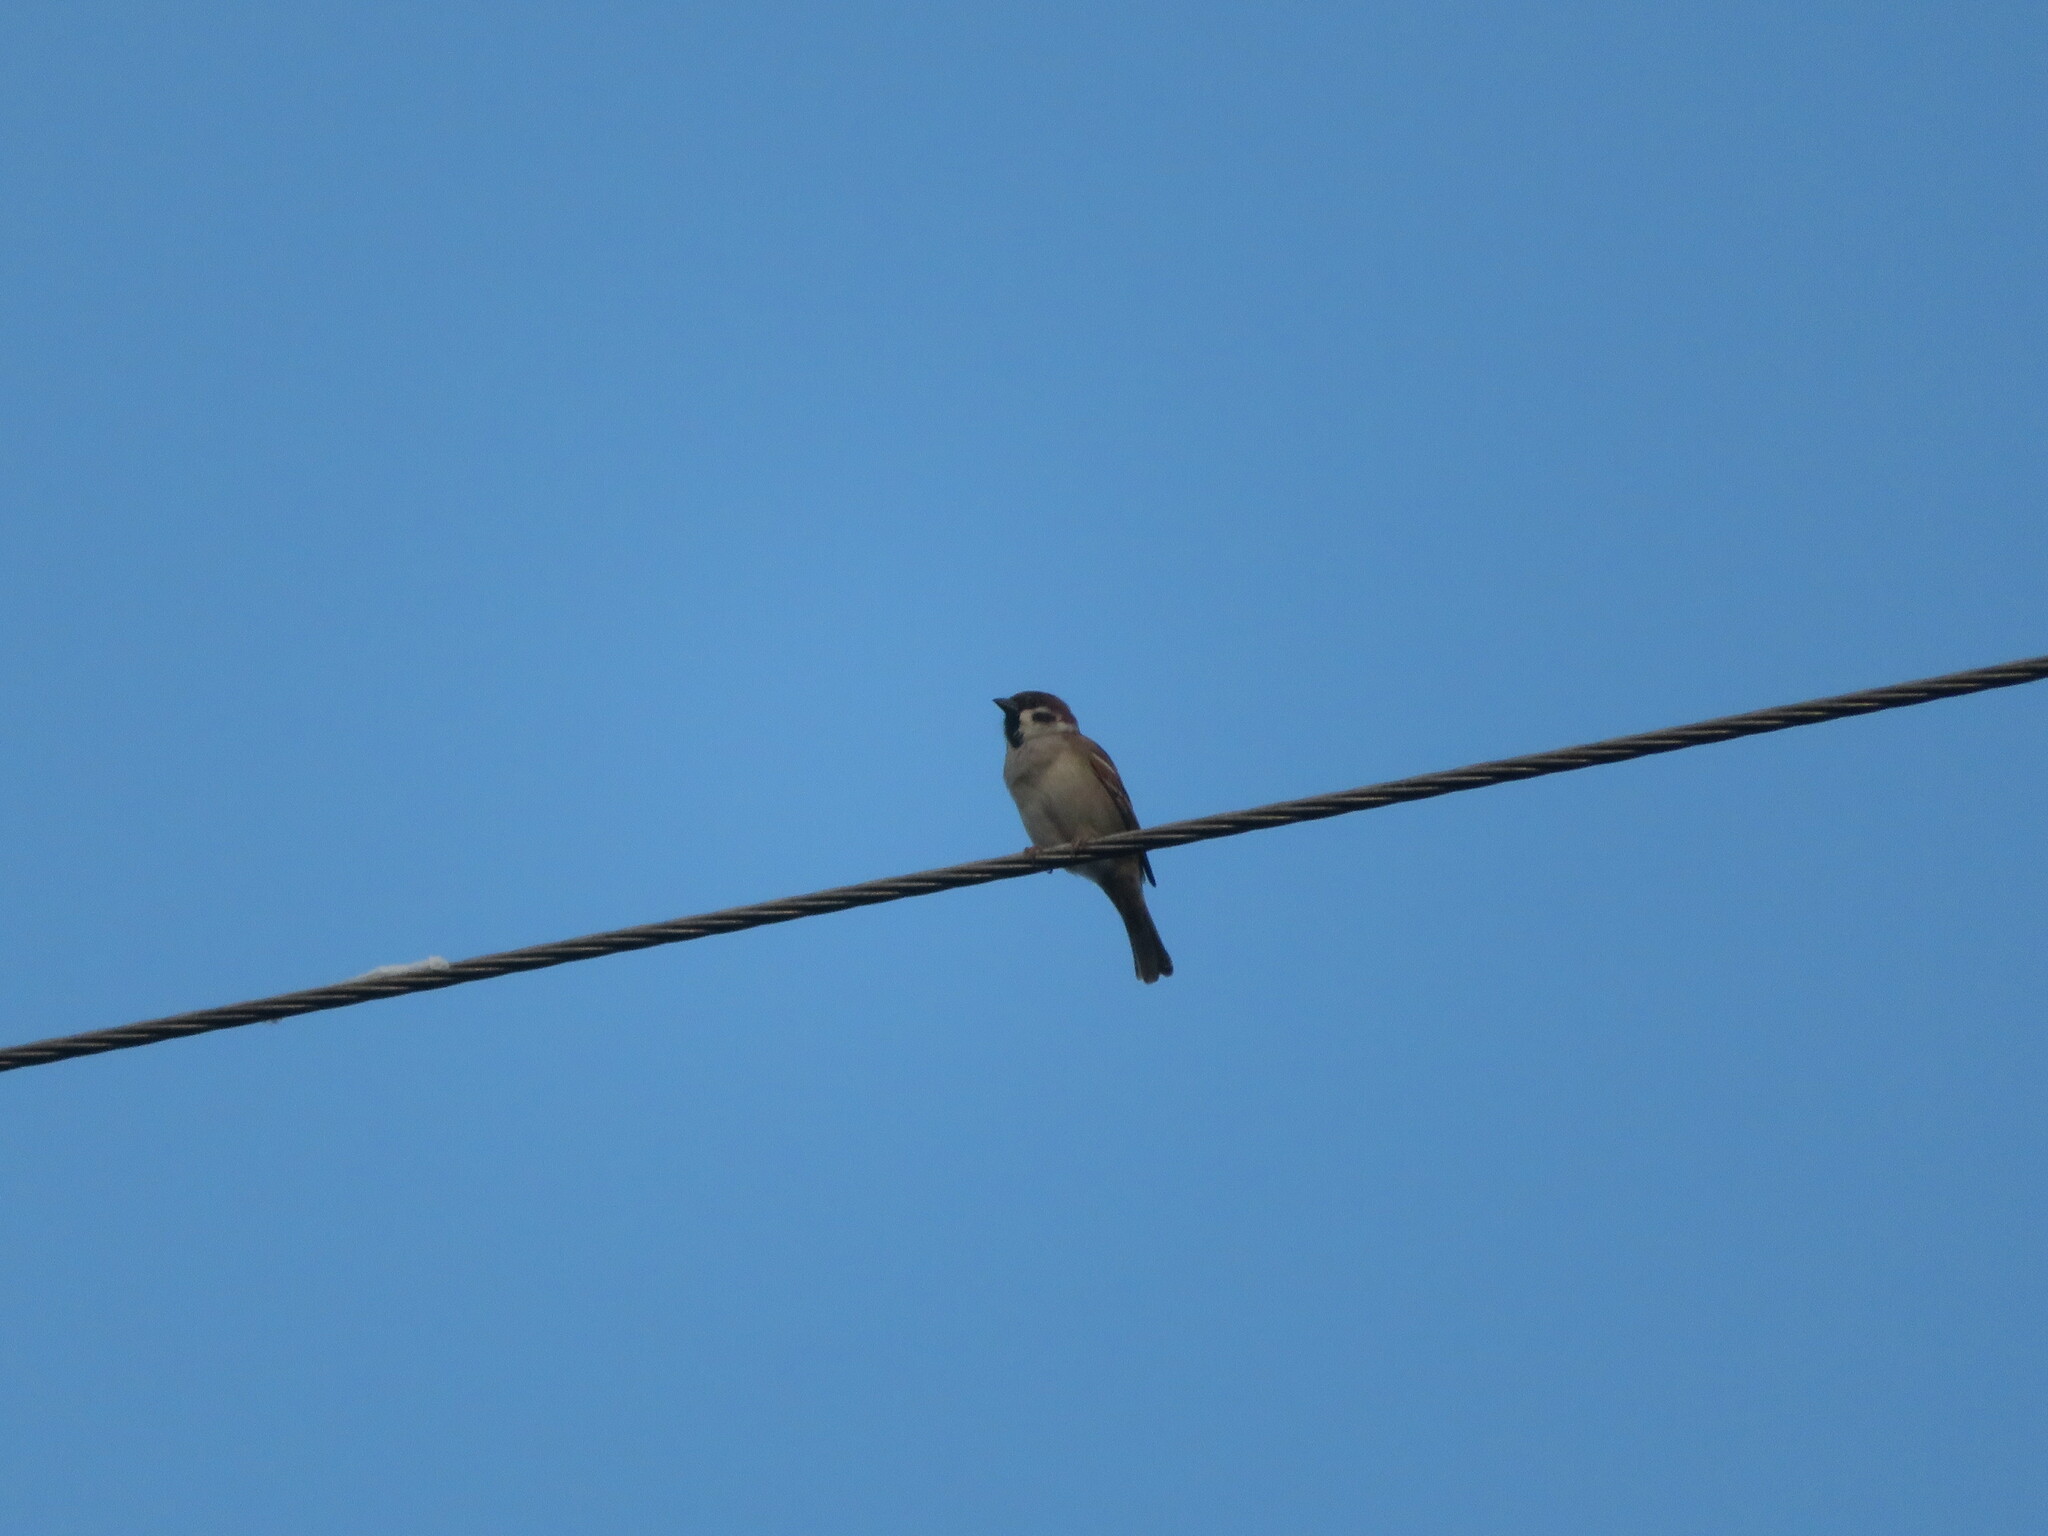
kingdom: Animalia
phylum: Chordata
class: Aves
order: Passeriformes
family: Passeridae
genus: Passer
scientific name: Passer montanus
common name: Eurasian tree sparrow
